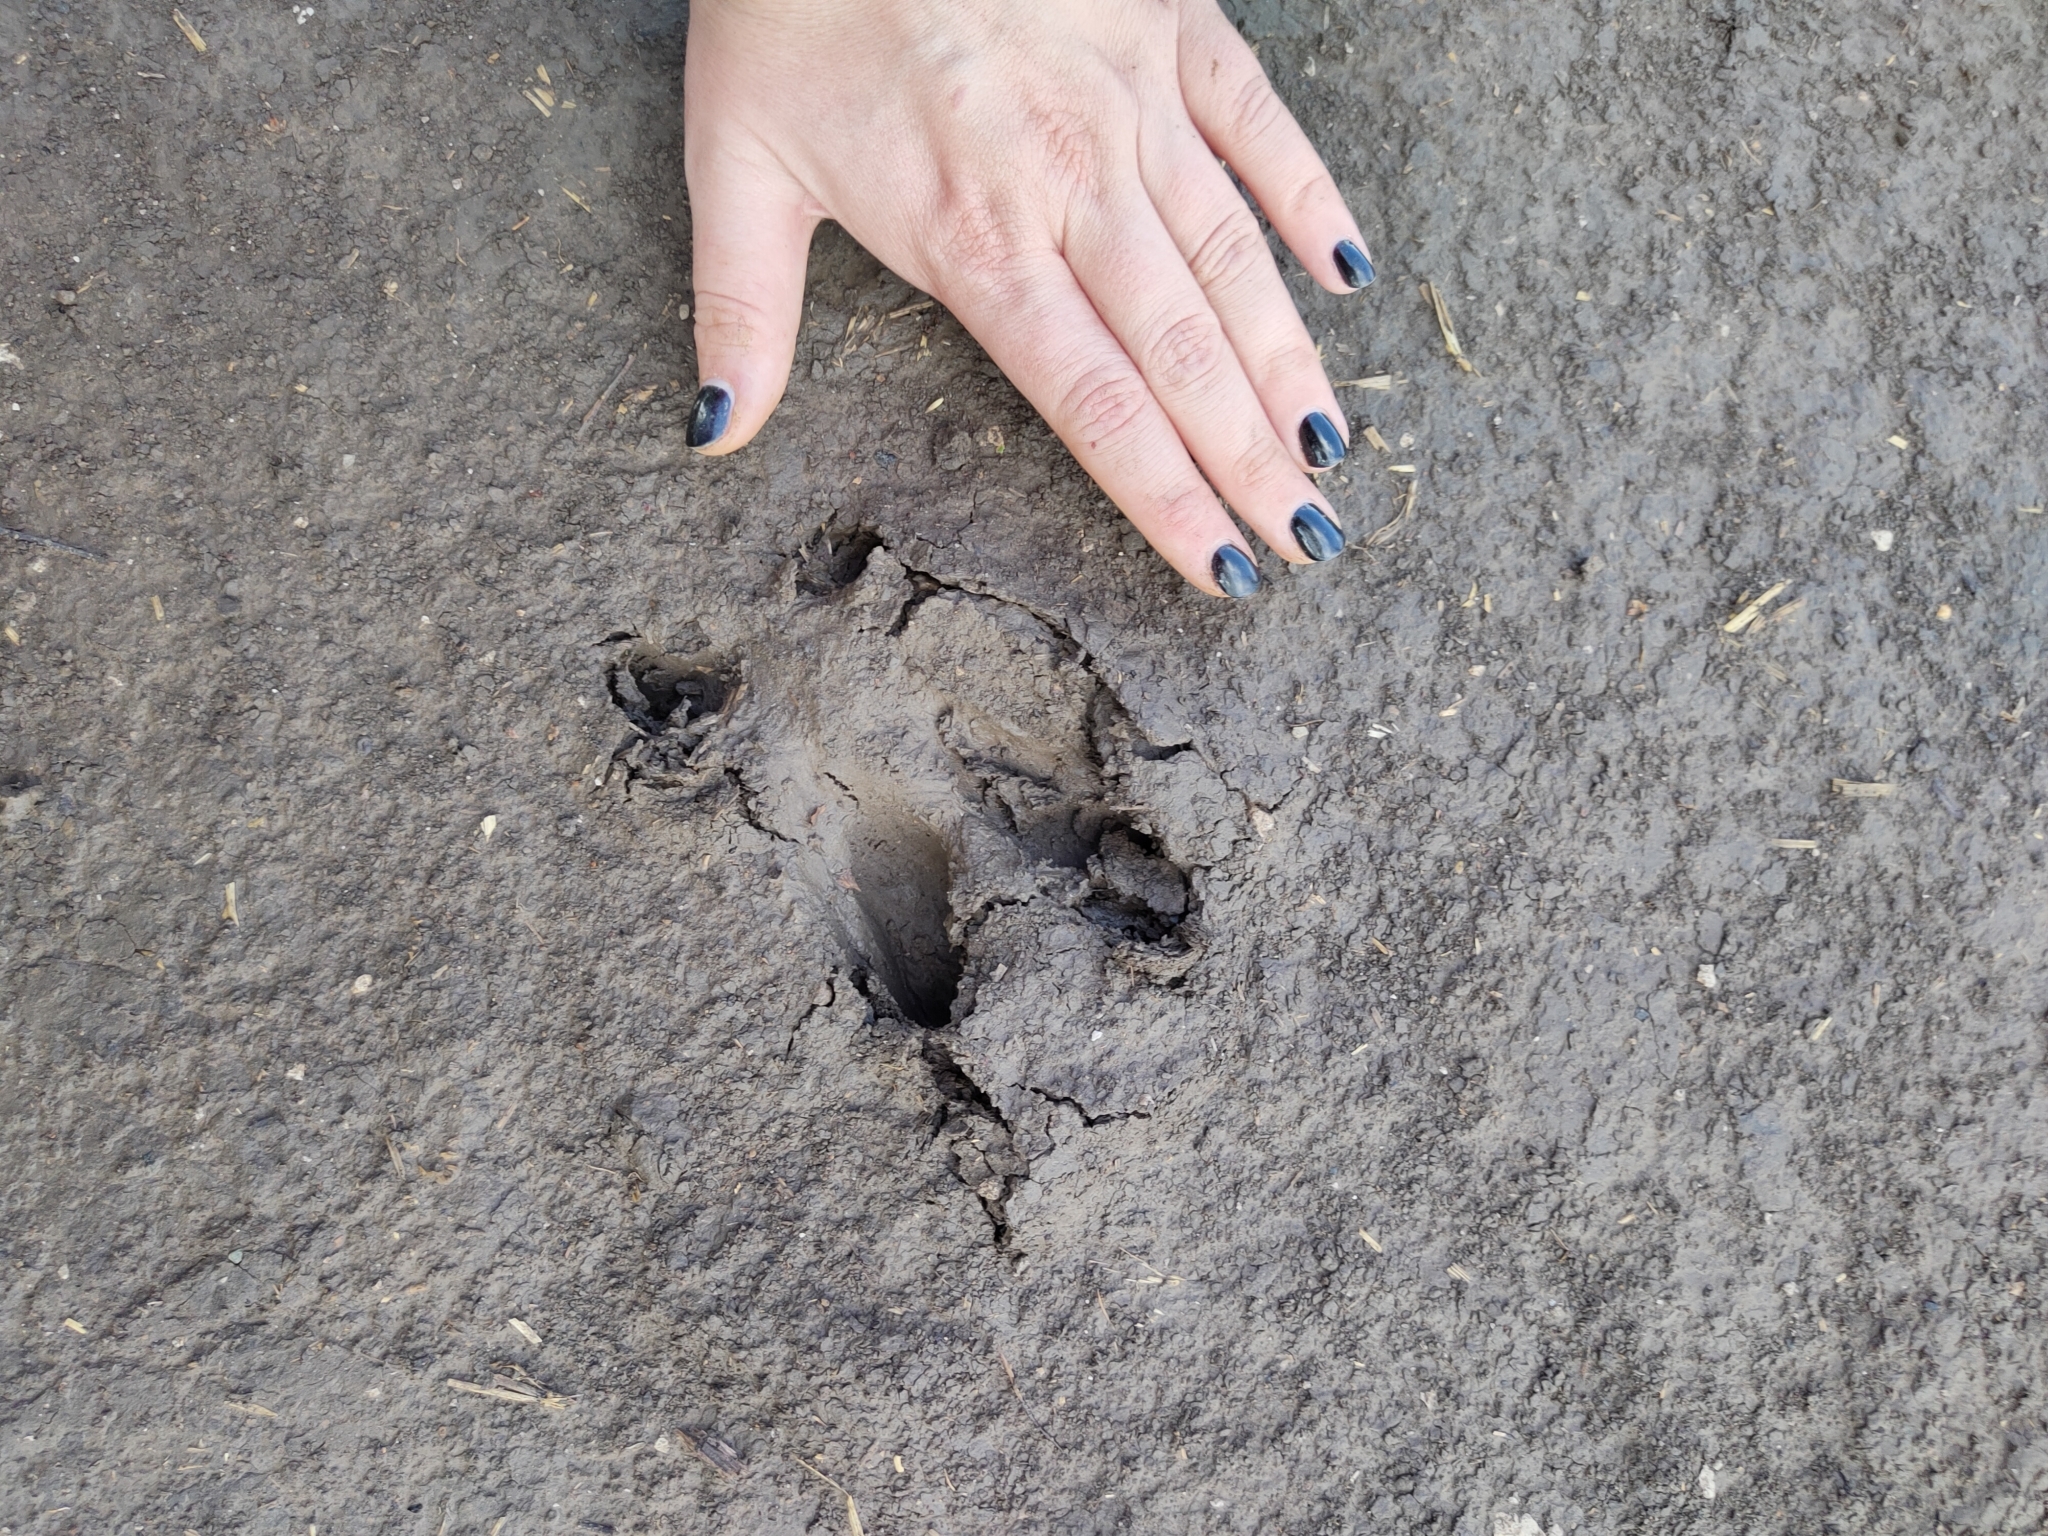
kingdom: Animalia
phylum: Chordata
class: Mammalia
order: Artiodactyla
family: Cervidae
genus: Capreolus
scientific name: Capreolus pygargus
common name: Siberian roe
